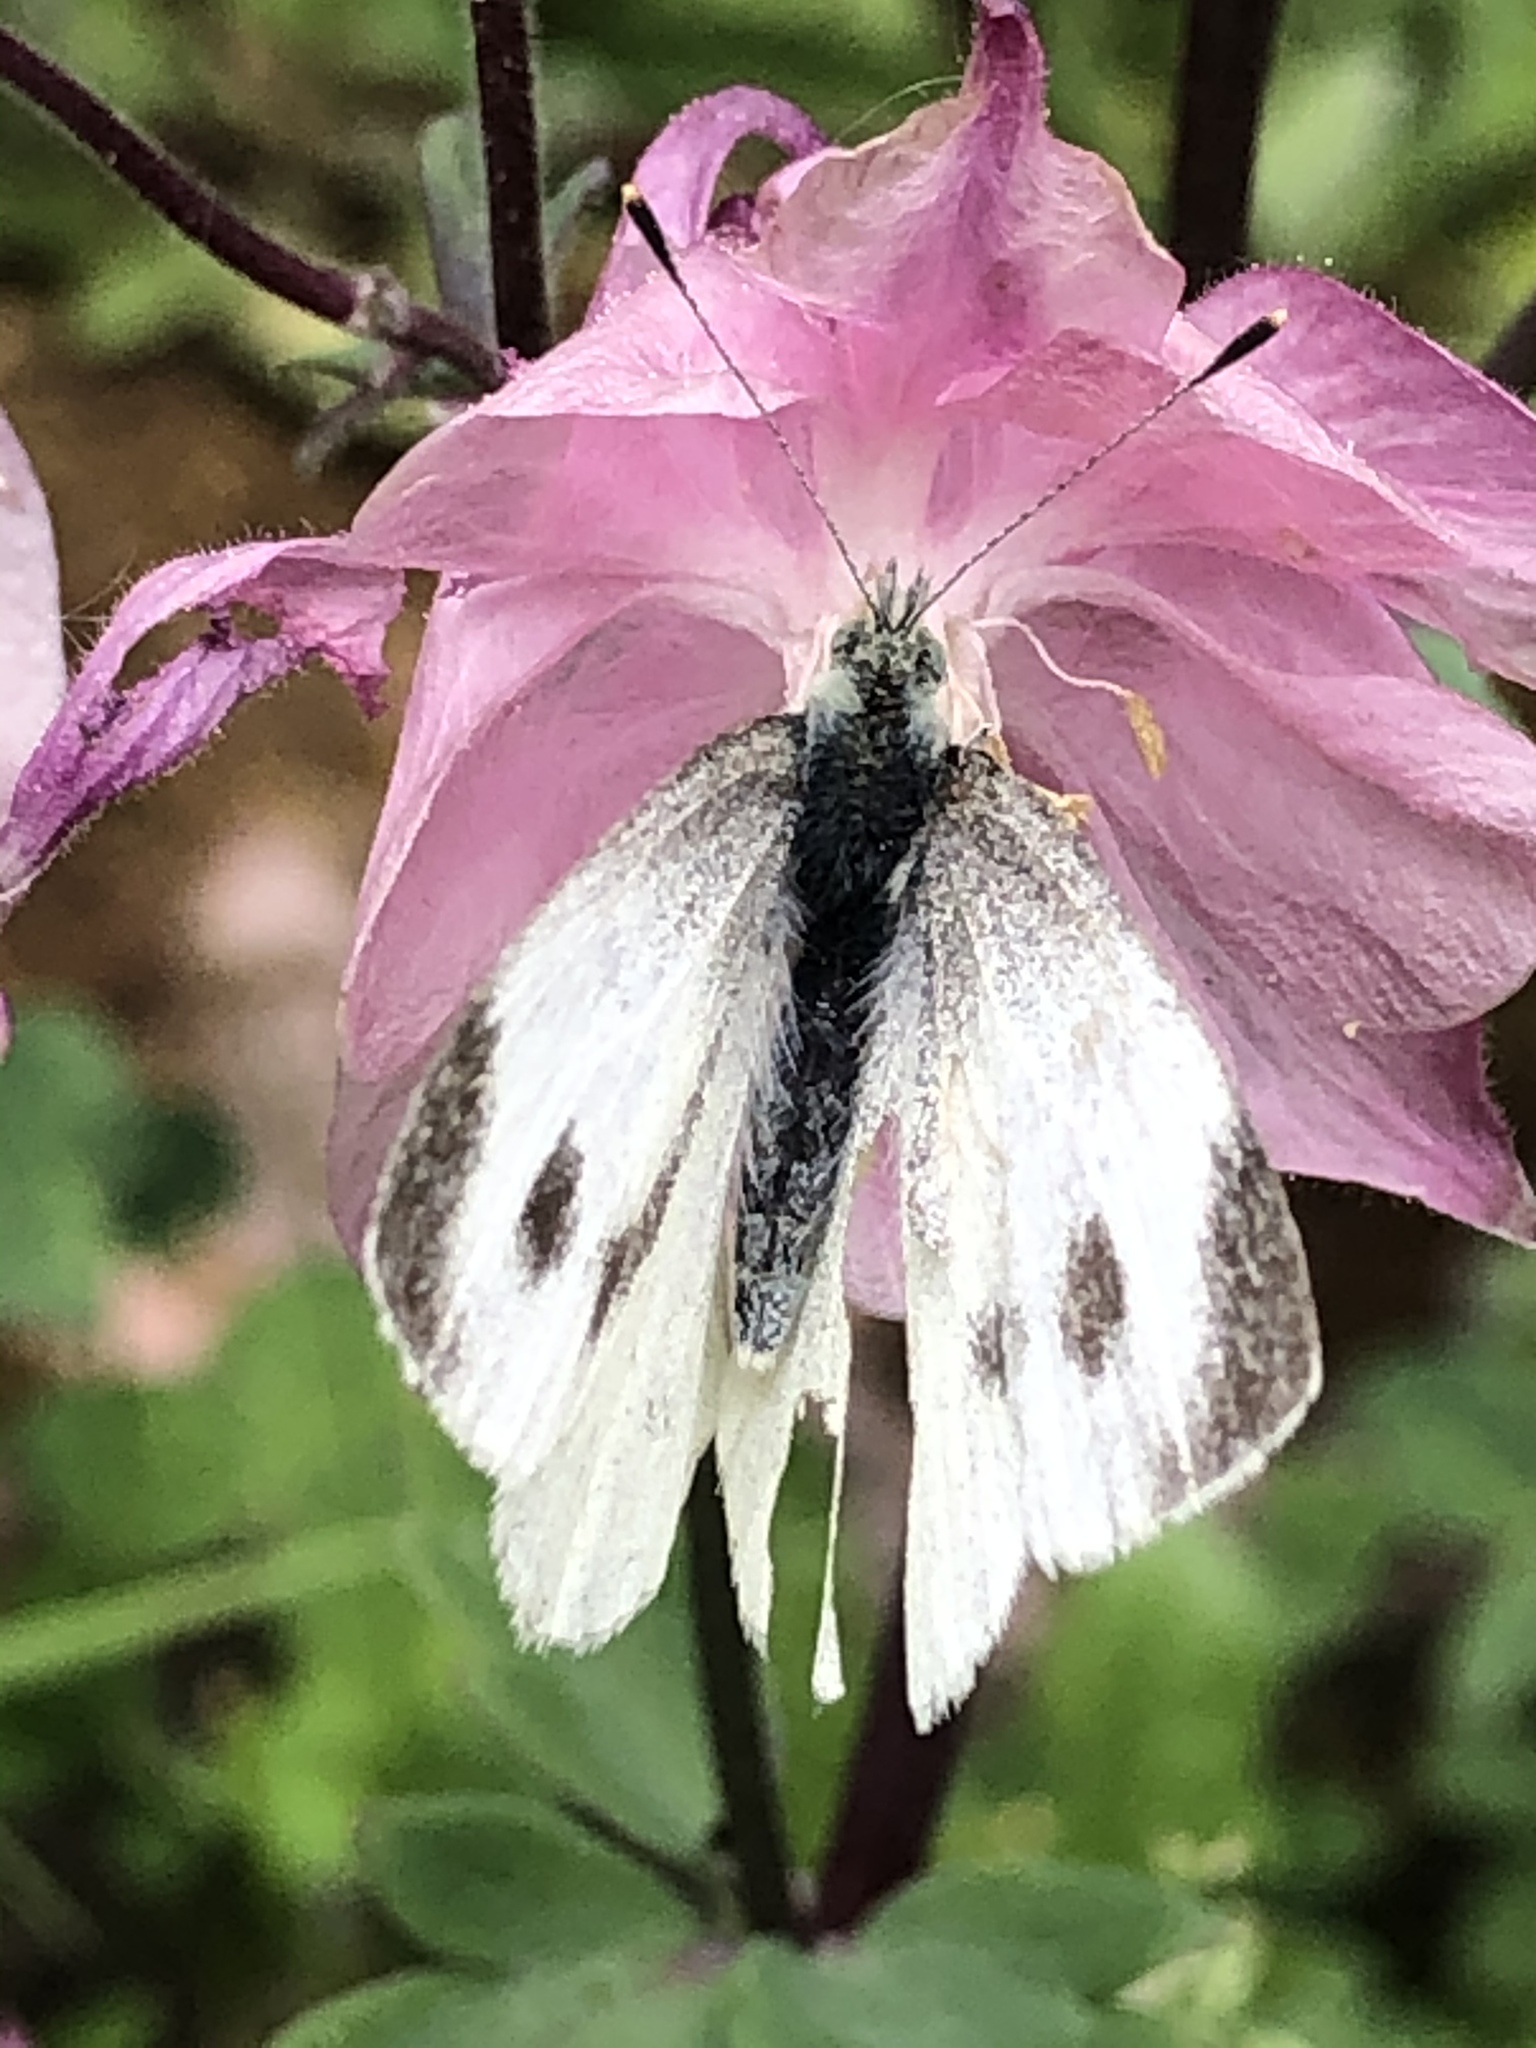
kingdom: Animalia
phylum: Arthropoda
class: Insecta
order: Lepidoptera
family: Pieridae
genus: Pieris
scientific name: Pieris mannii
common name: Southern small white
